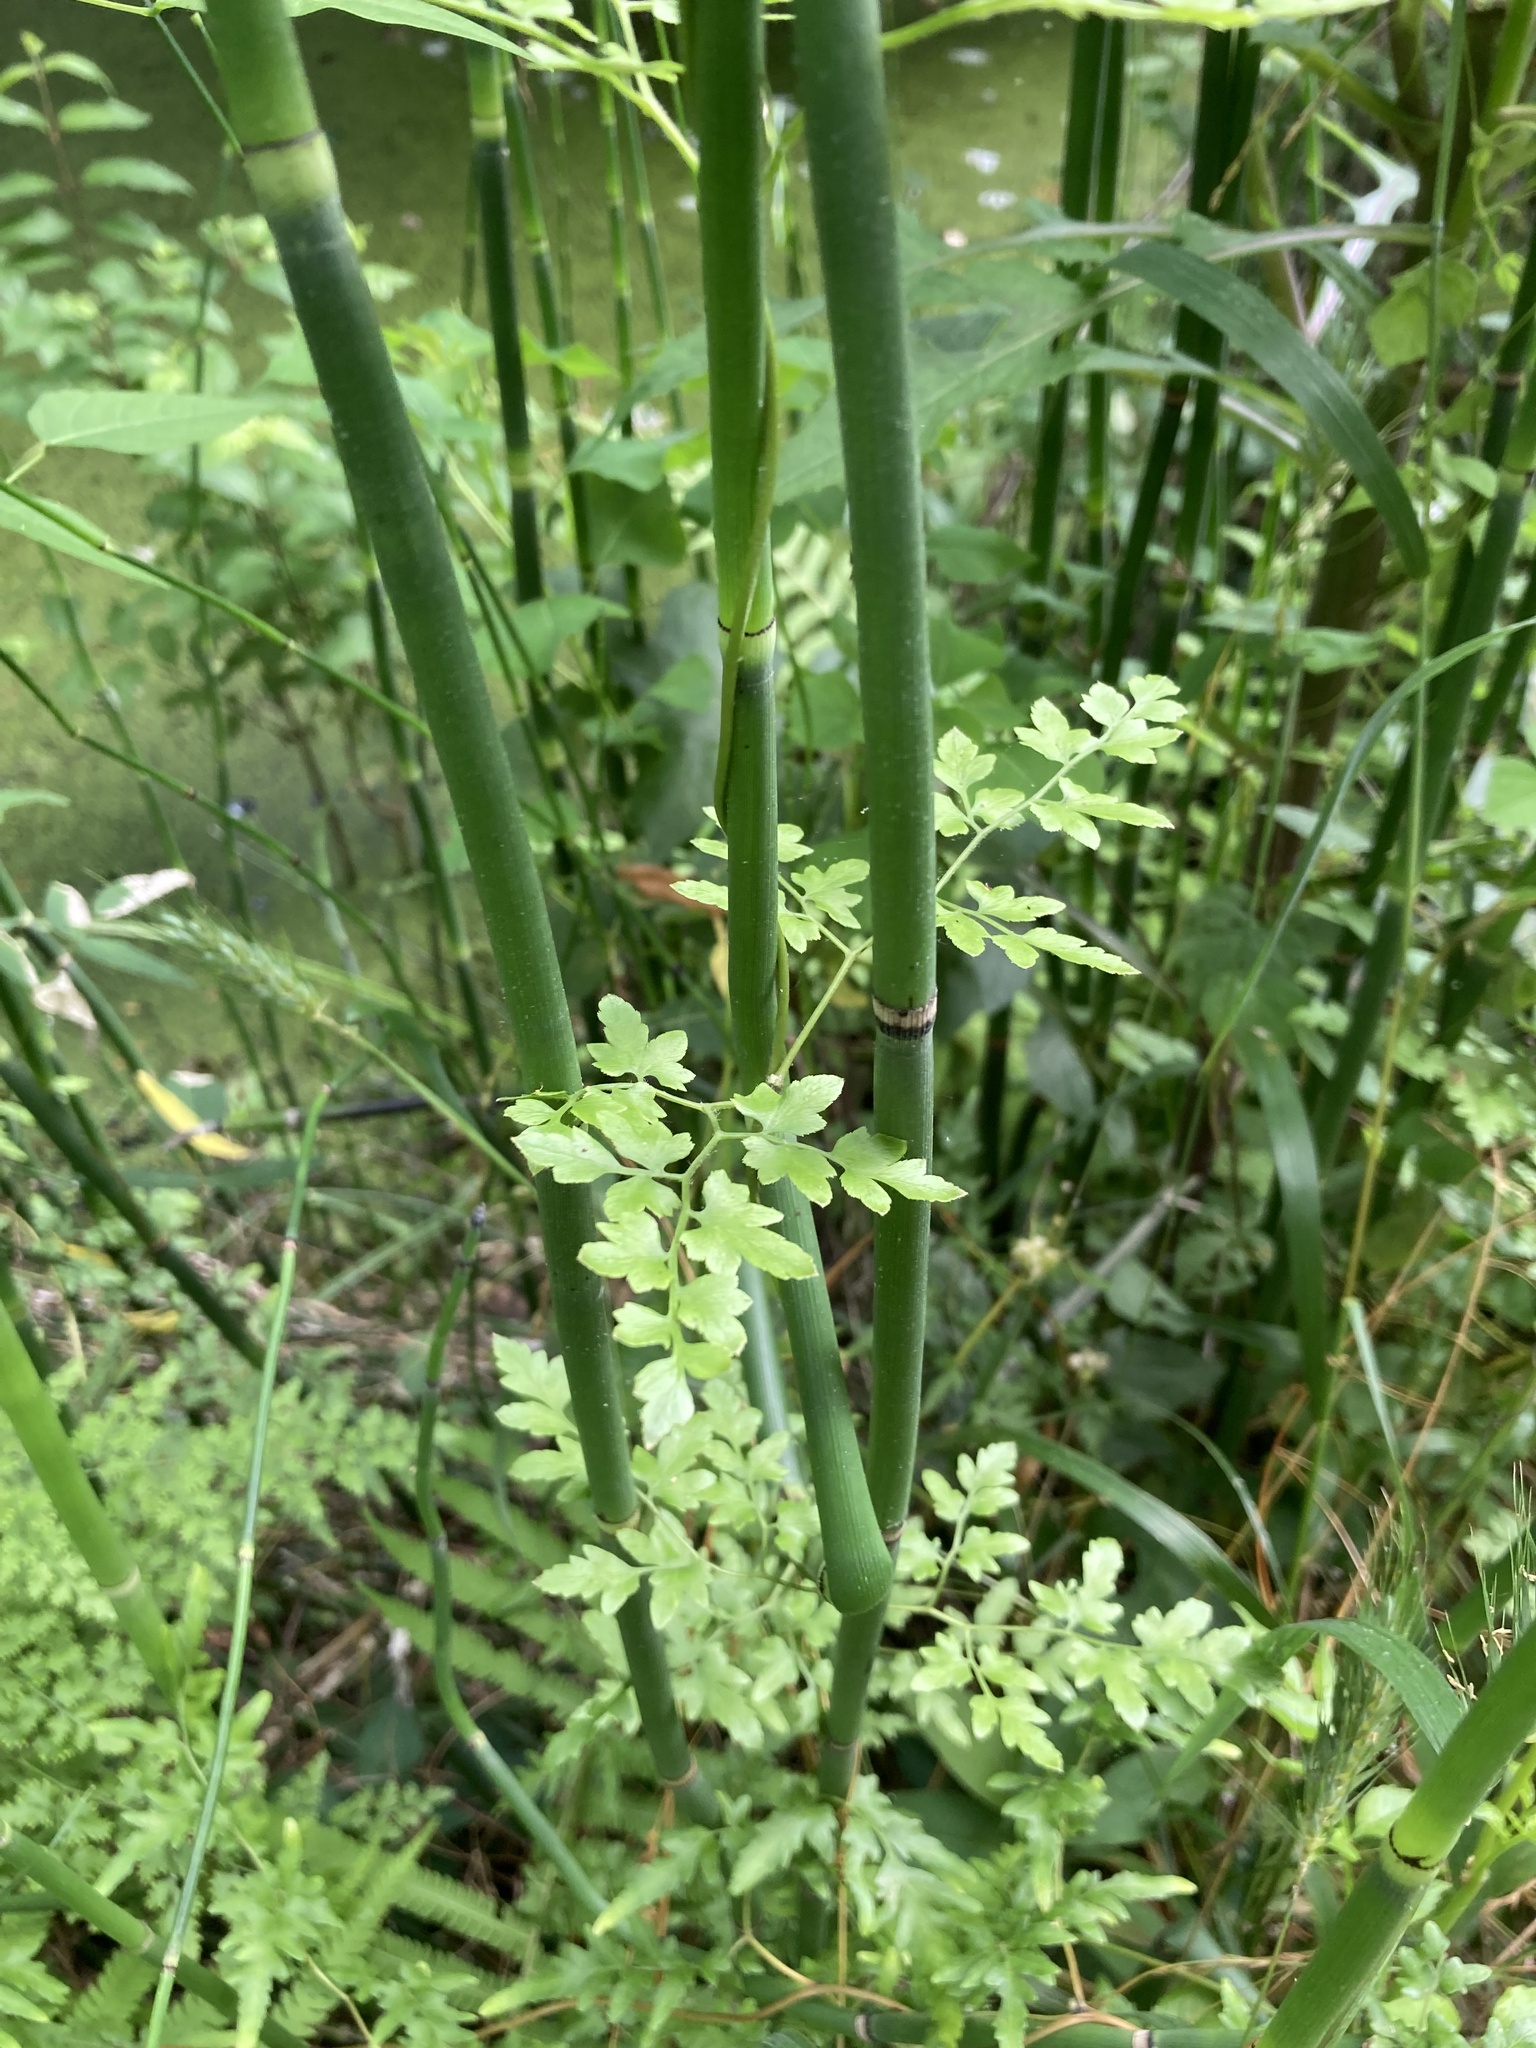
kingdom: Plantae
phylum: Tracheophyta
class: Polypodiopsida
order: Schizaeales
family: Lygodiaceae
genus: Lygodium
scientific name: Lygodium japonicum
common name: Japanese climbing fern
